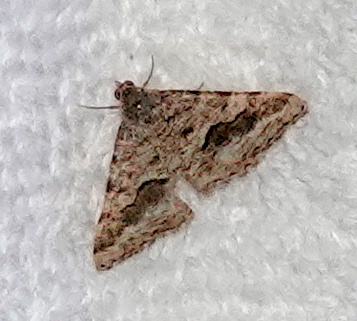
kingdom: Animalia
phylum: Arthropoda
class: Insecta
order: Lepidoptera
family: Geometridae
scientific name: Geometridae
